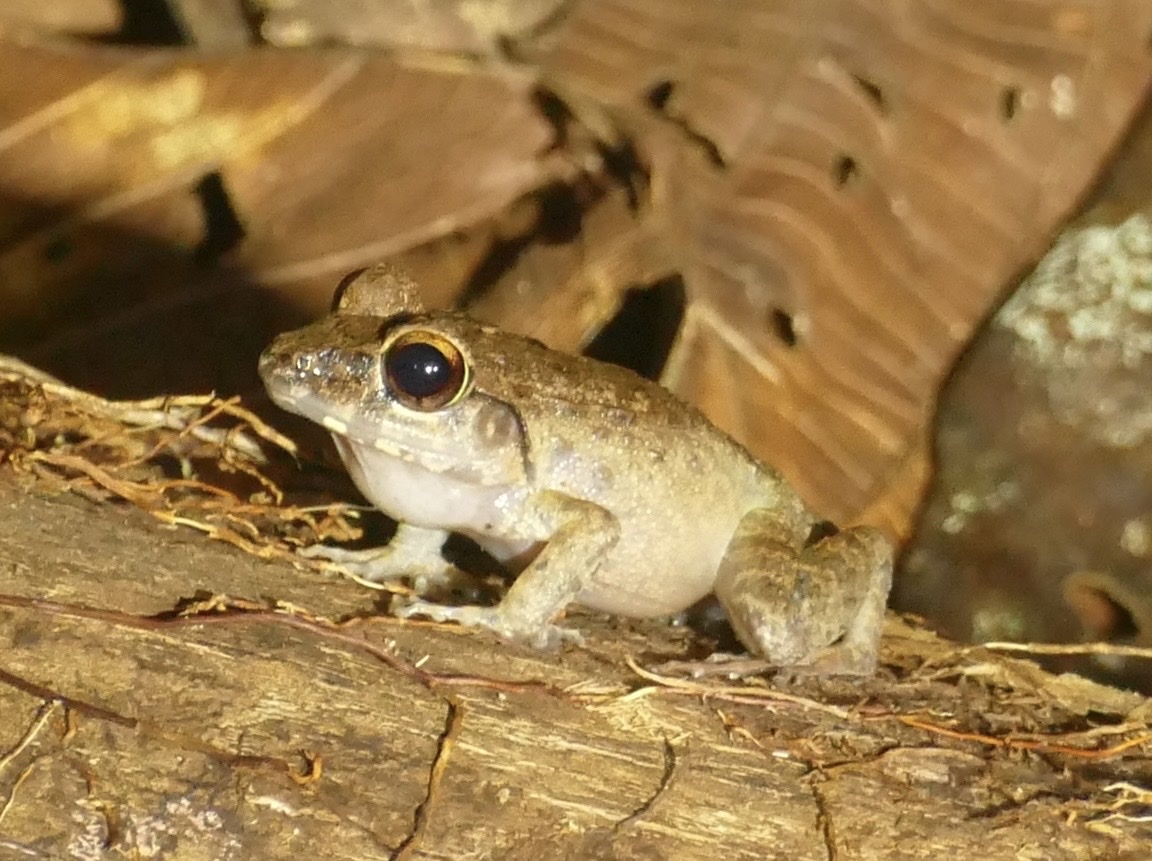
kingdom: Animalia
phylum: Chordata
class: Amphibia
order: Anura
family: Ceratobatrachidae
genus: Cornufer
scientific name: Cornufer papuensis
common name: Papua wrinkled ground frog
